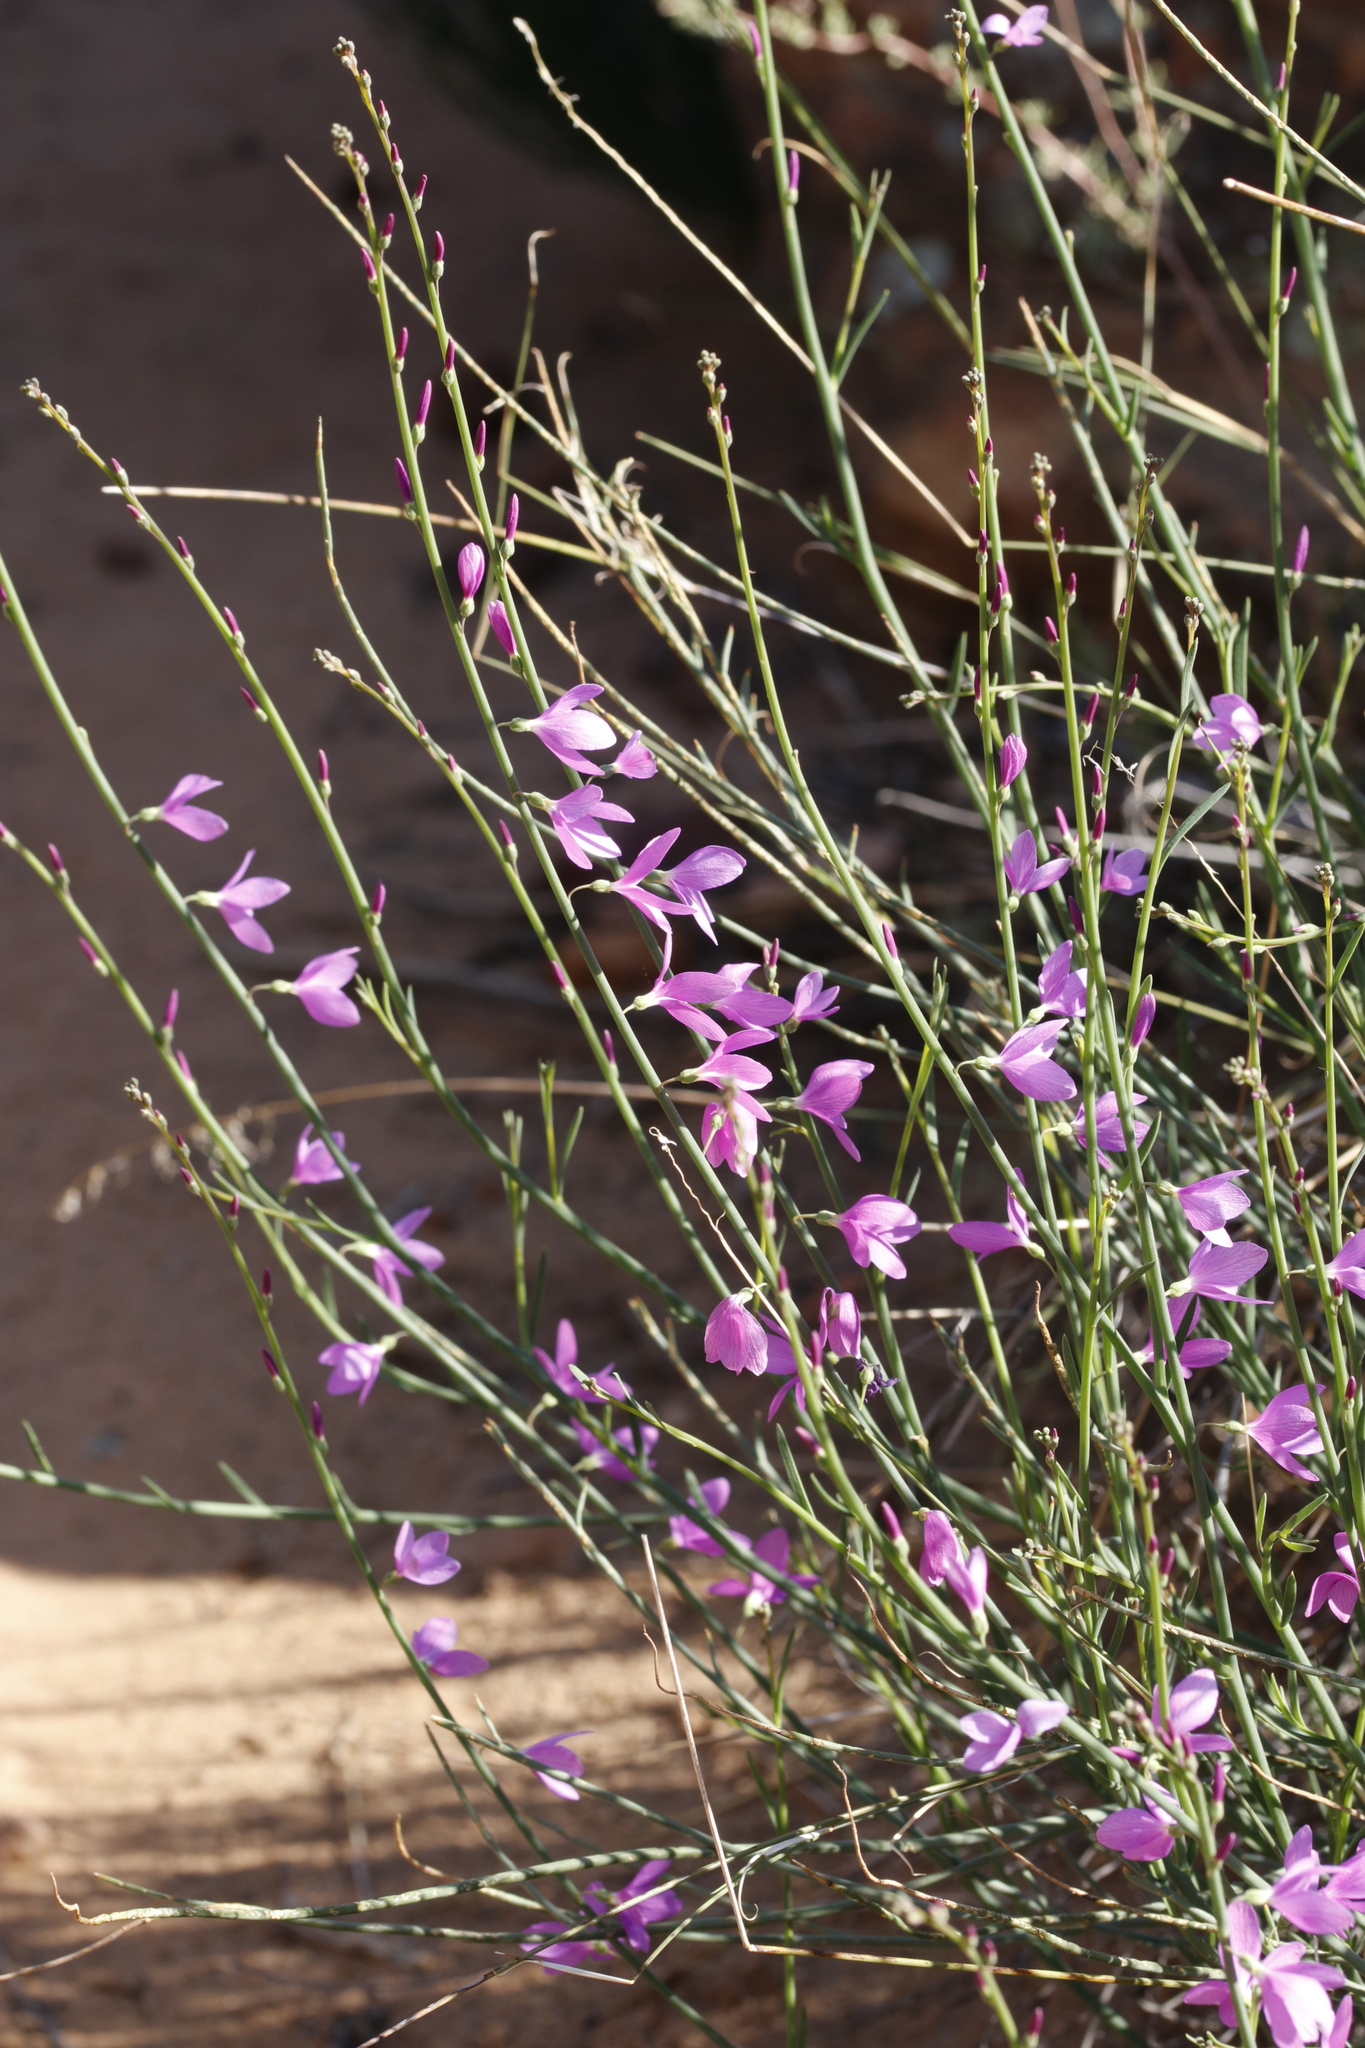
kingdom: Plantae
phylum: Tracheophyta
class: Magnoliopsida
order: Brassicales
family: Brassicaceae
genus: Heliophila
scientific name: Heliophila juncea
